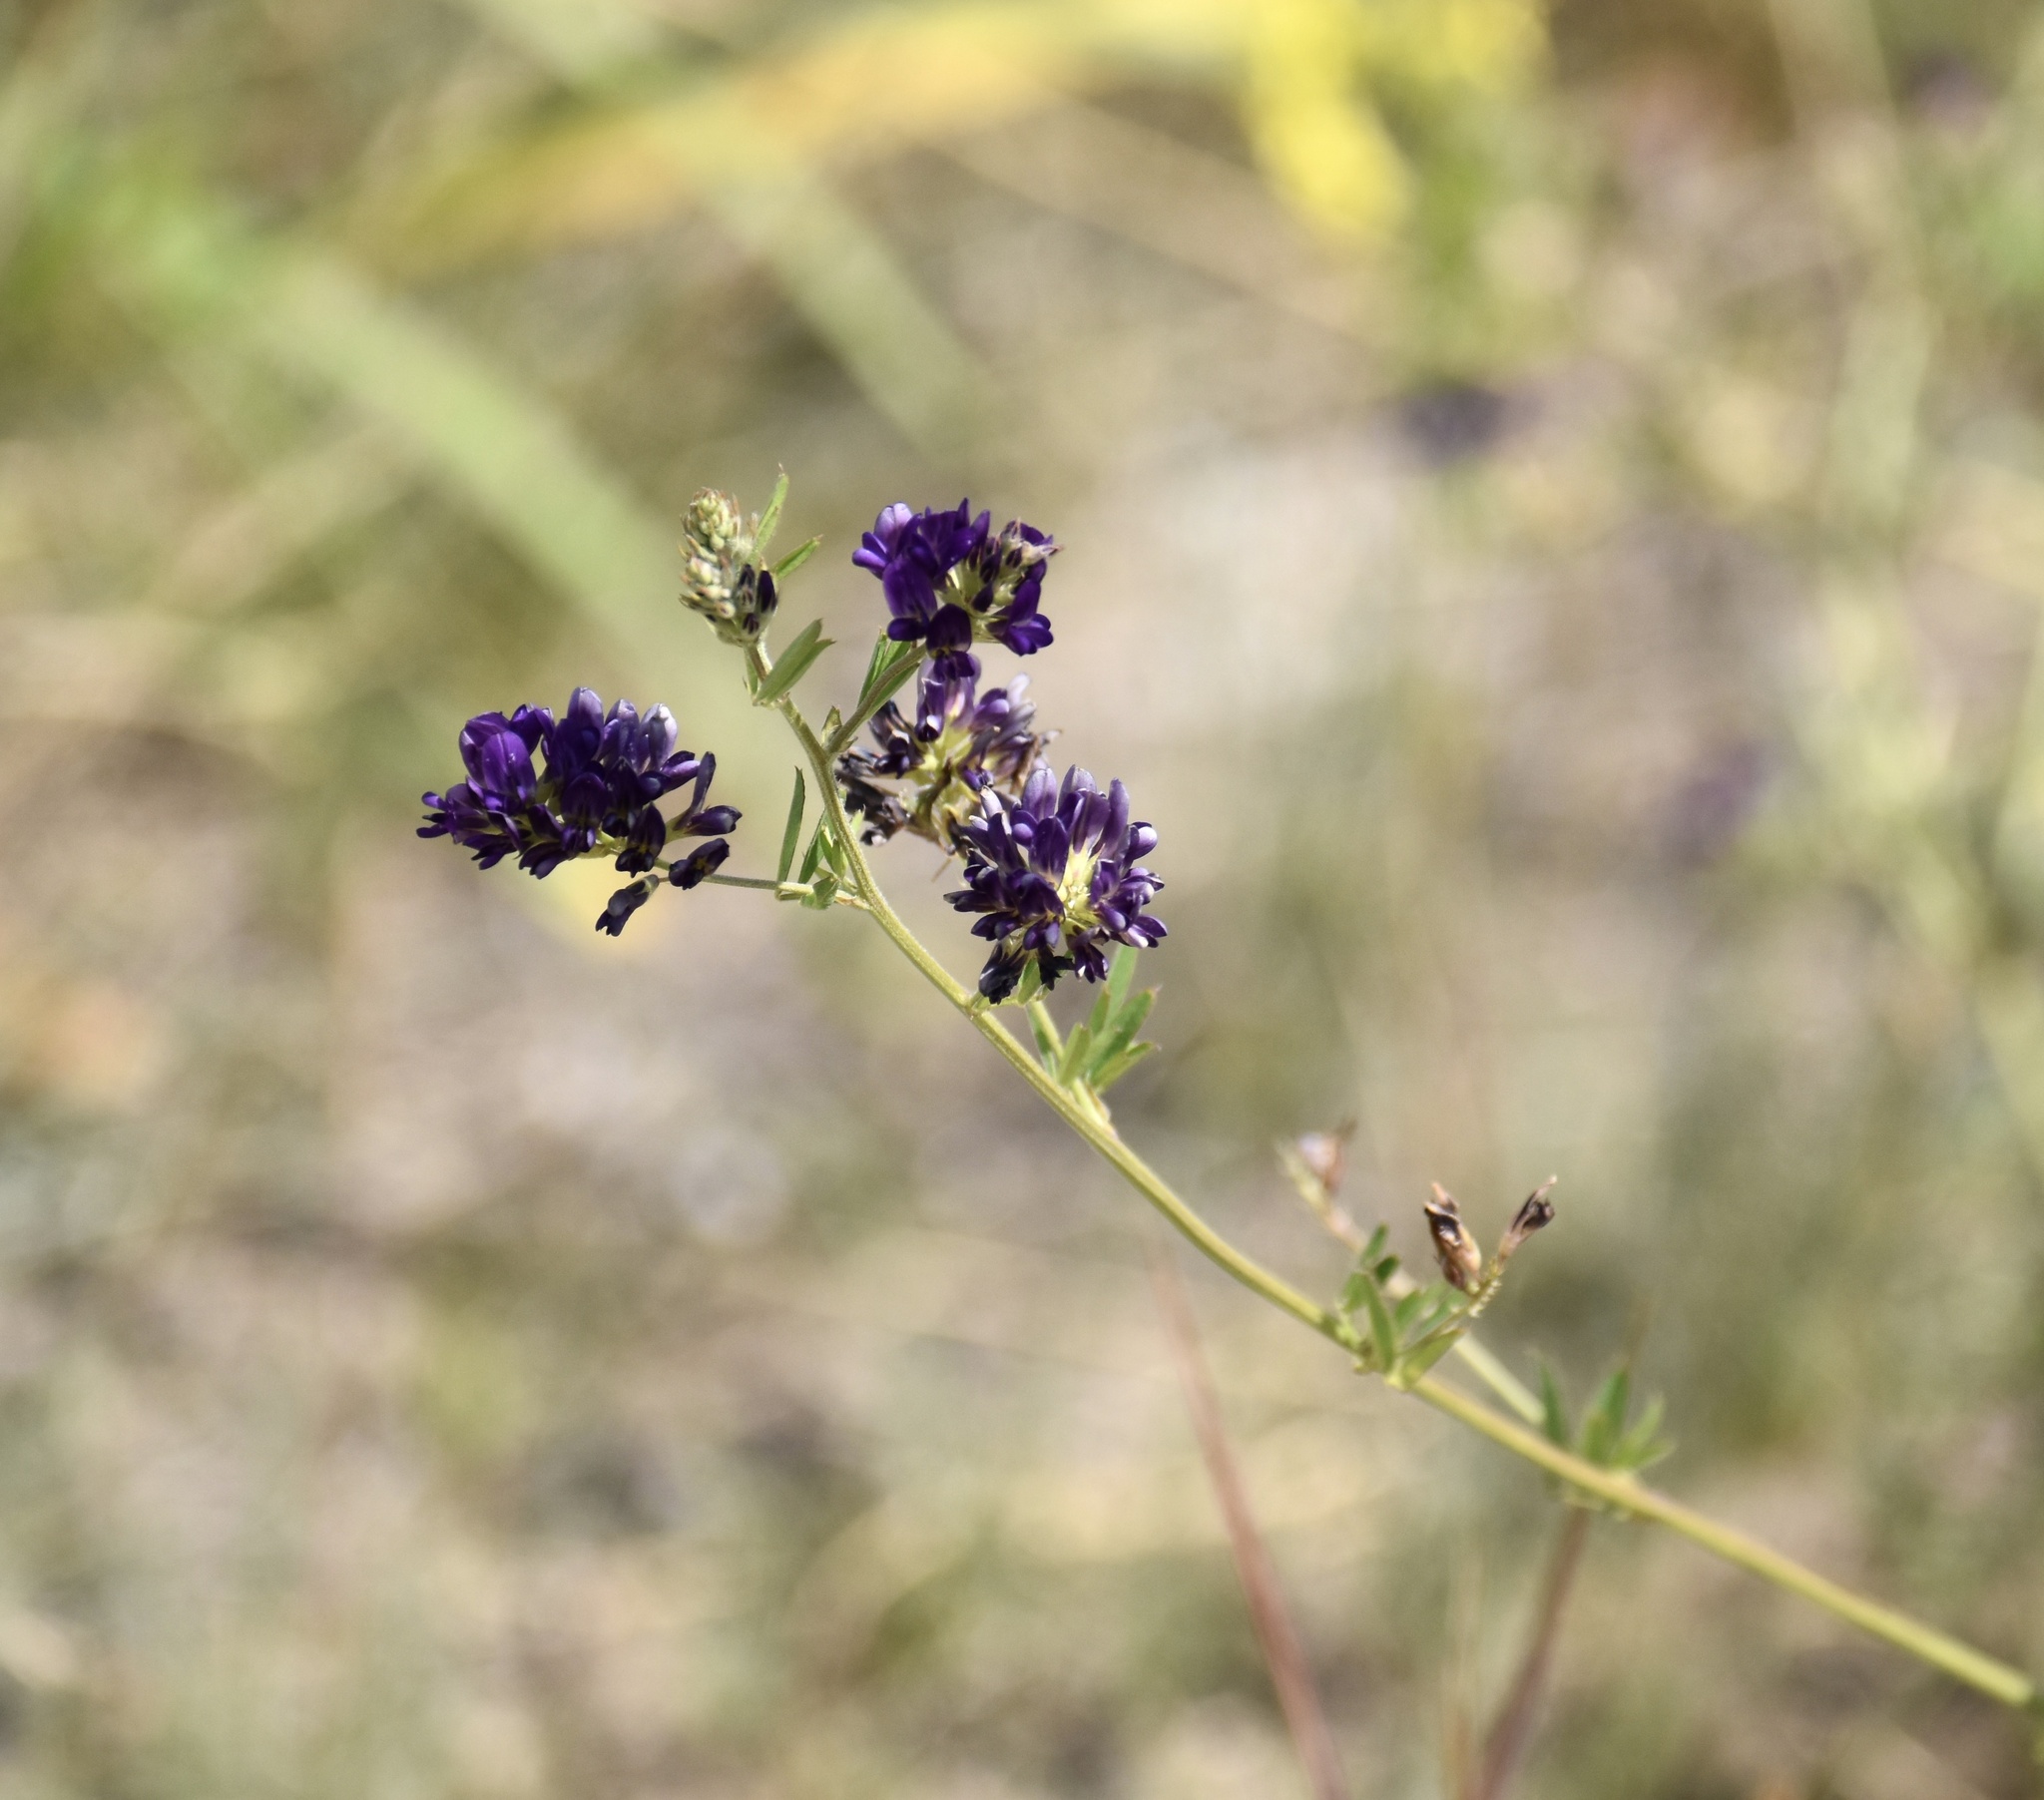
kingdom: Plantae
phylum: Tracheophyta
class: Magnoliopsida
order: Fabales
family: Fabaceae
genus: Medicago
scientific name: Medicago sativa
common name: Alfalfa
